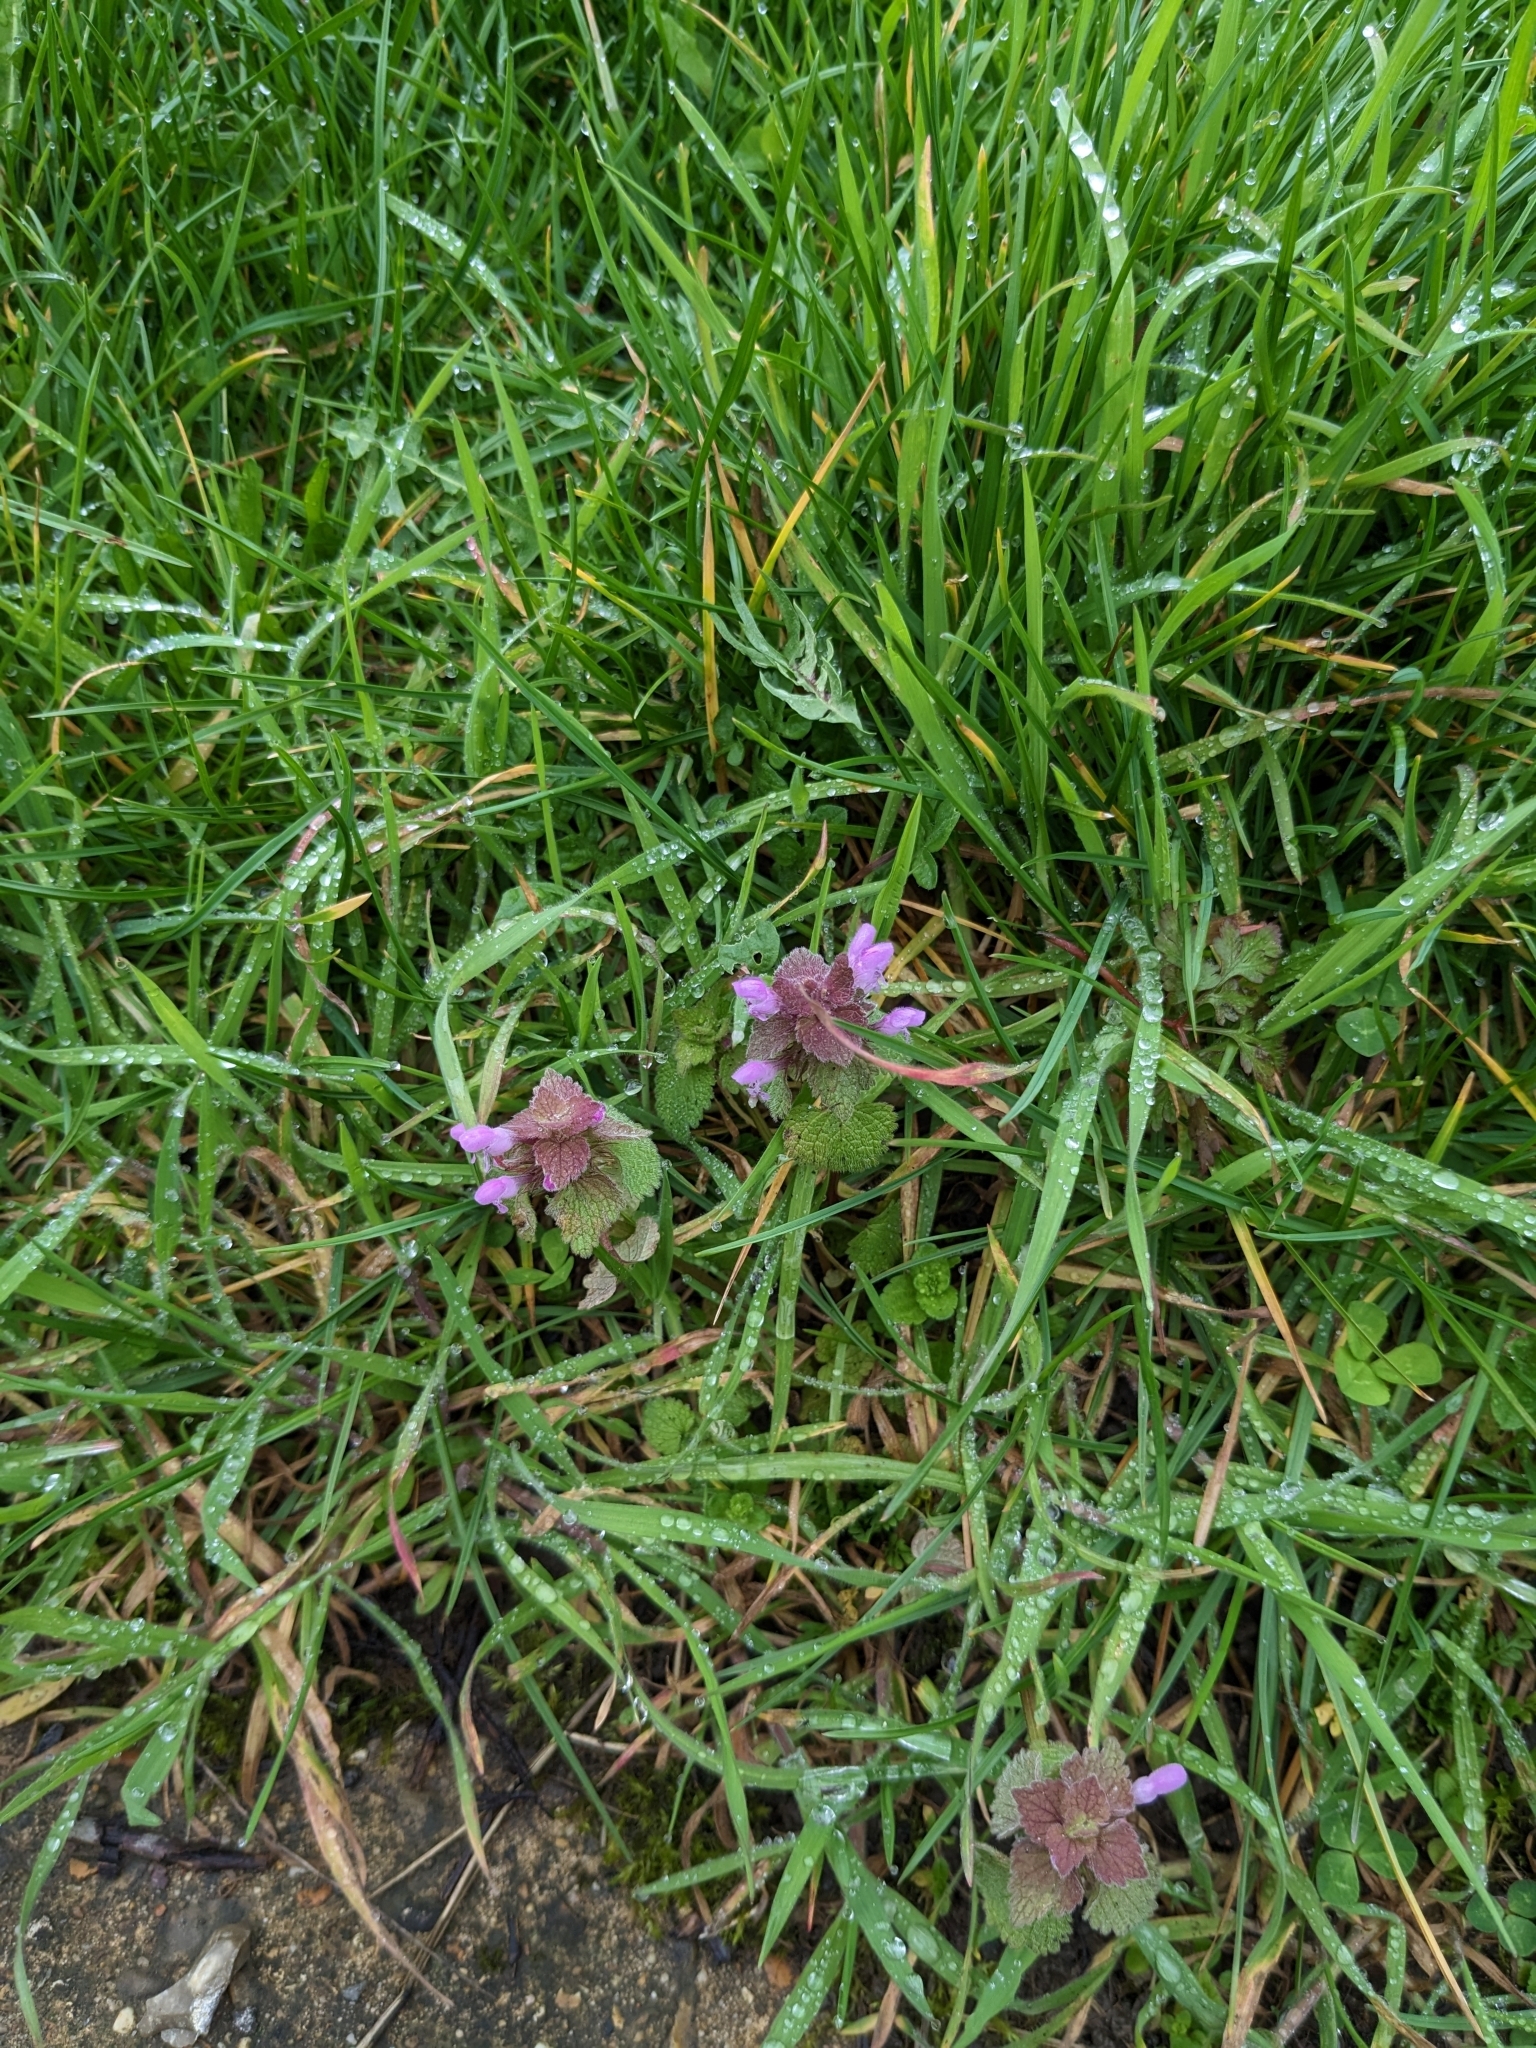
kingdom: Plantae
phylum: Tracheophyta
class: Magnoliopsida
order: Lamiales
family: Lamiaceae
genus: Lamium
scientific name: Lamium purpureum
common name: Red dead-nettle
